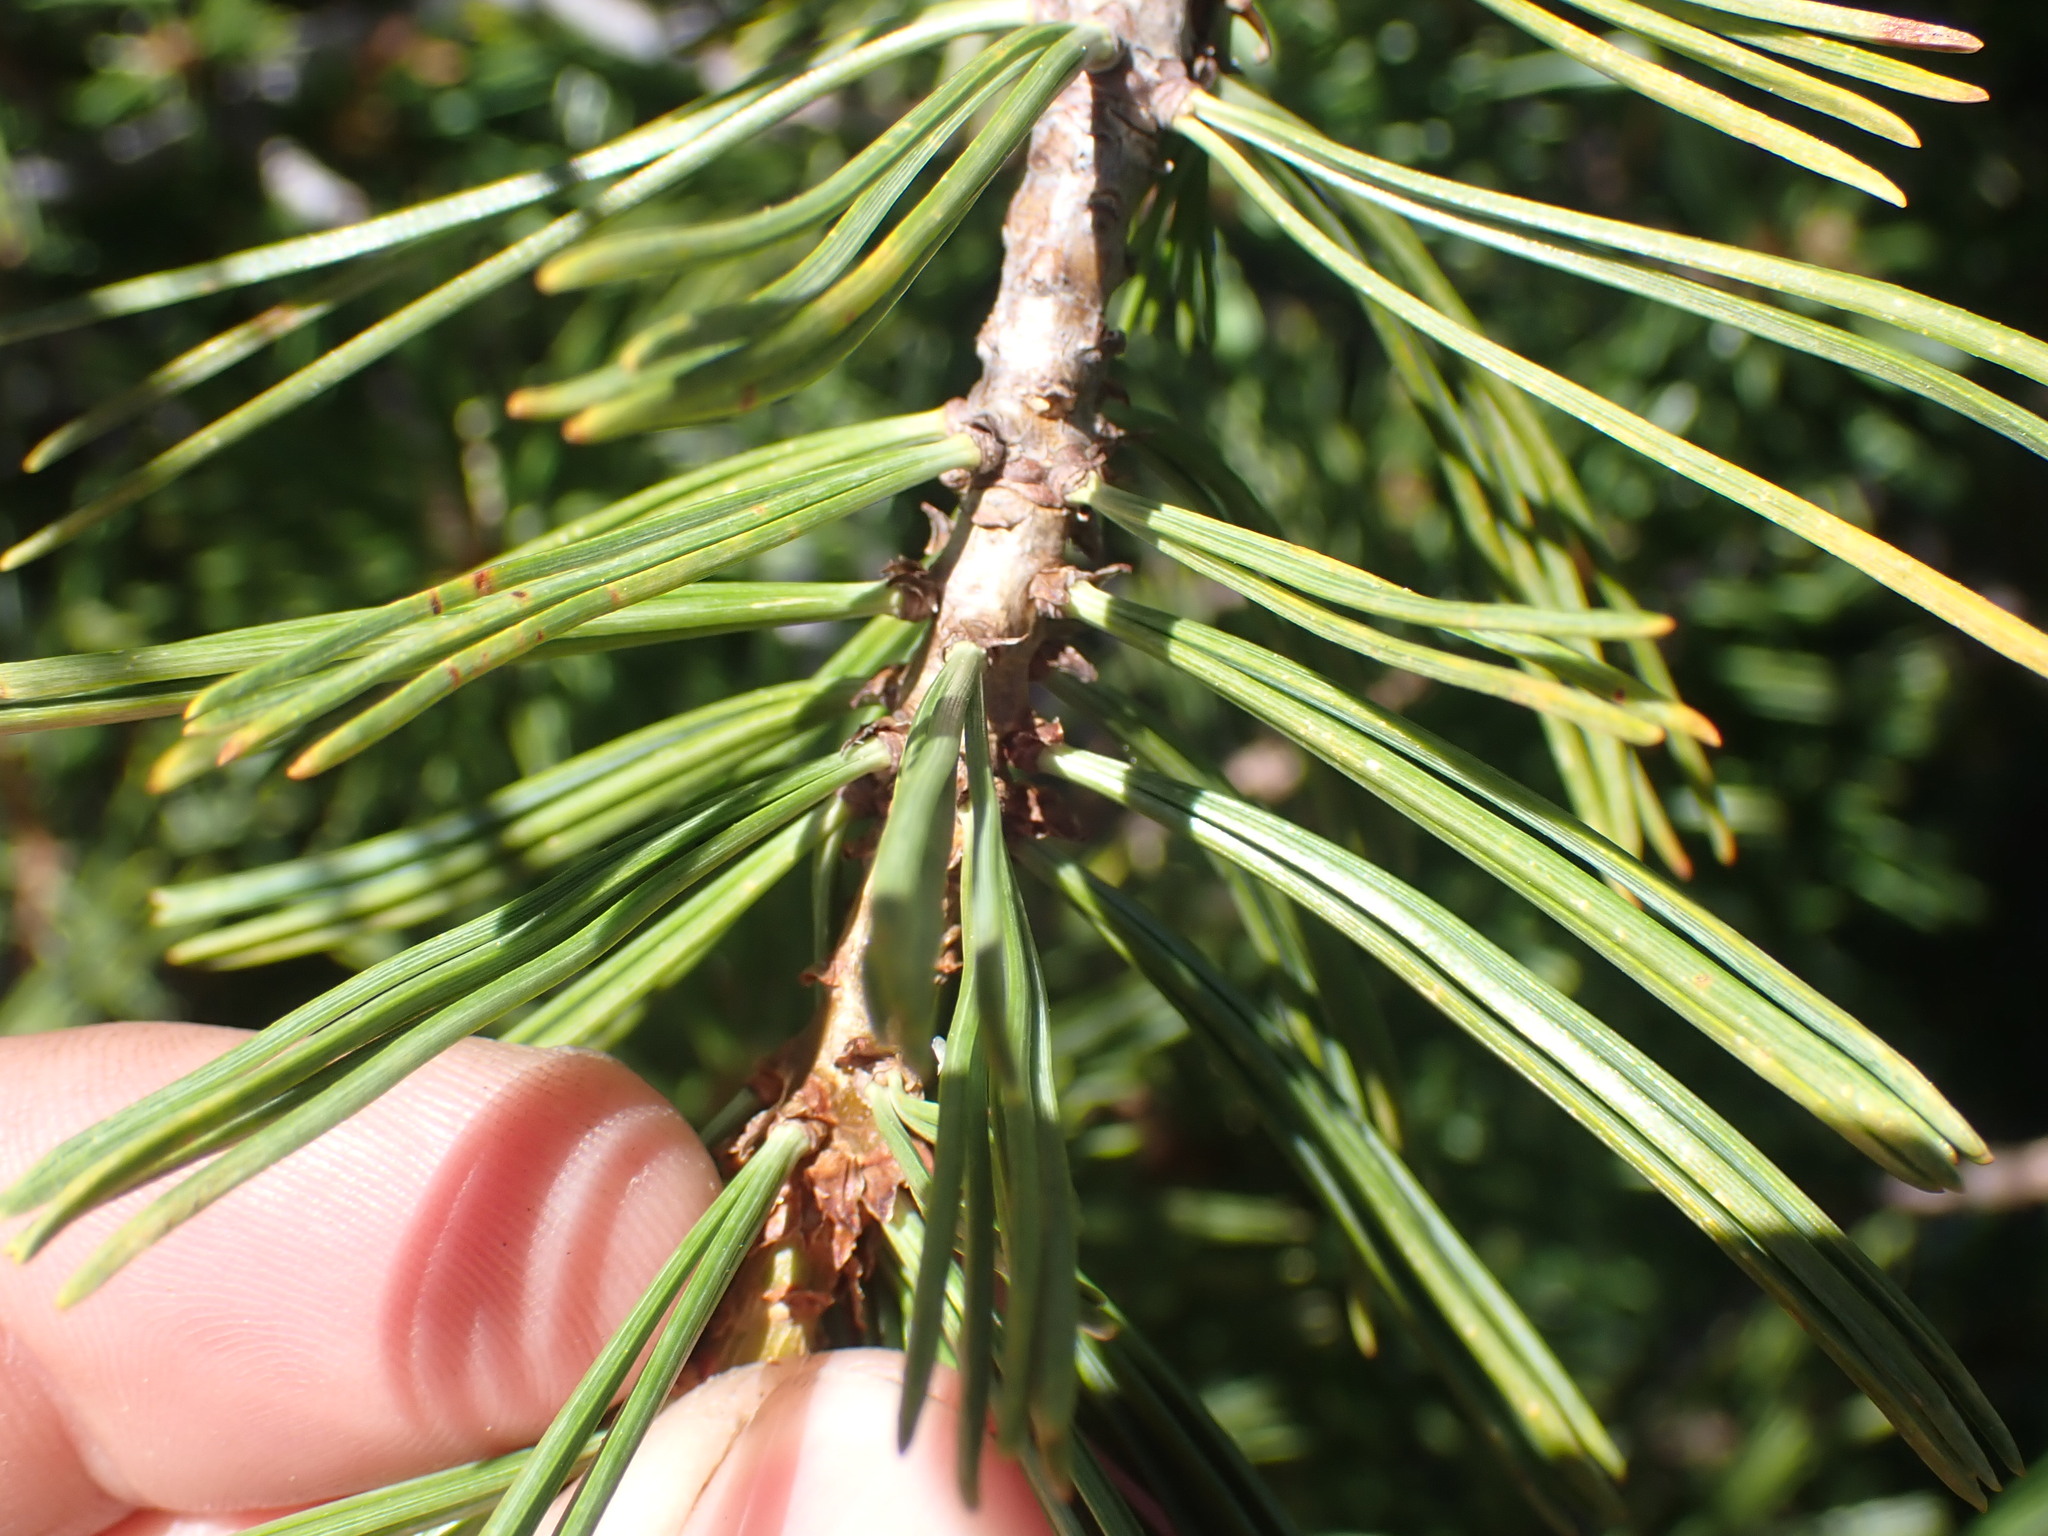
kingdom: Plantae
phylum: Tracheophyta
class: Pinopsida
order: Pinales
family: Pinaceae
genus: Pinus
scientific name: Pinus albicaulis
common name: Whitebark pine
